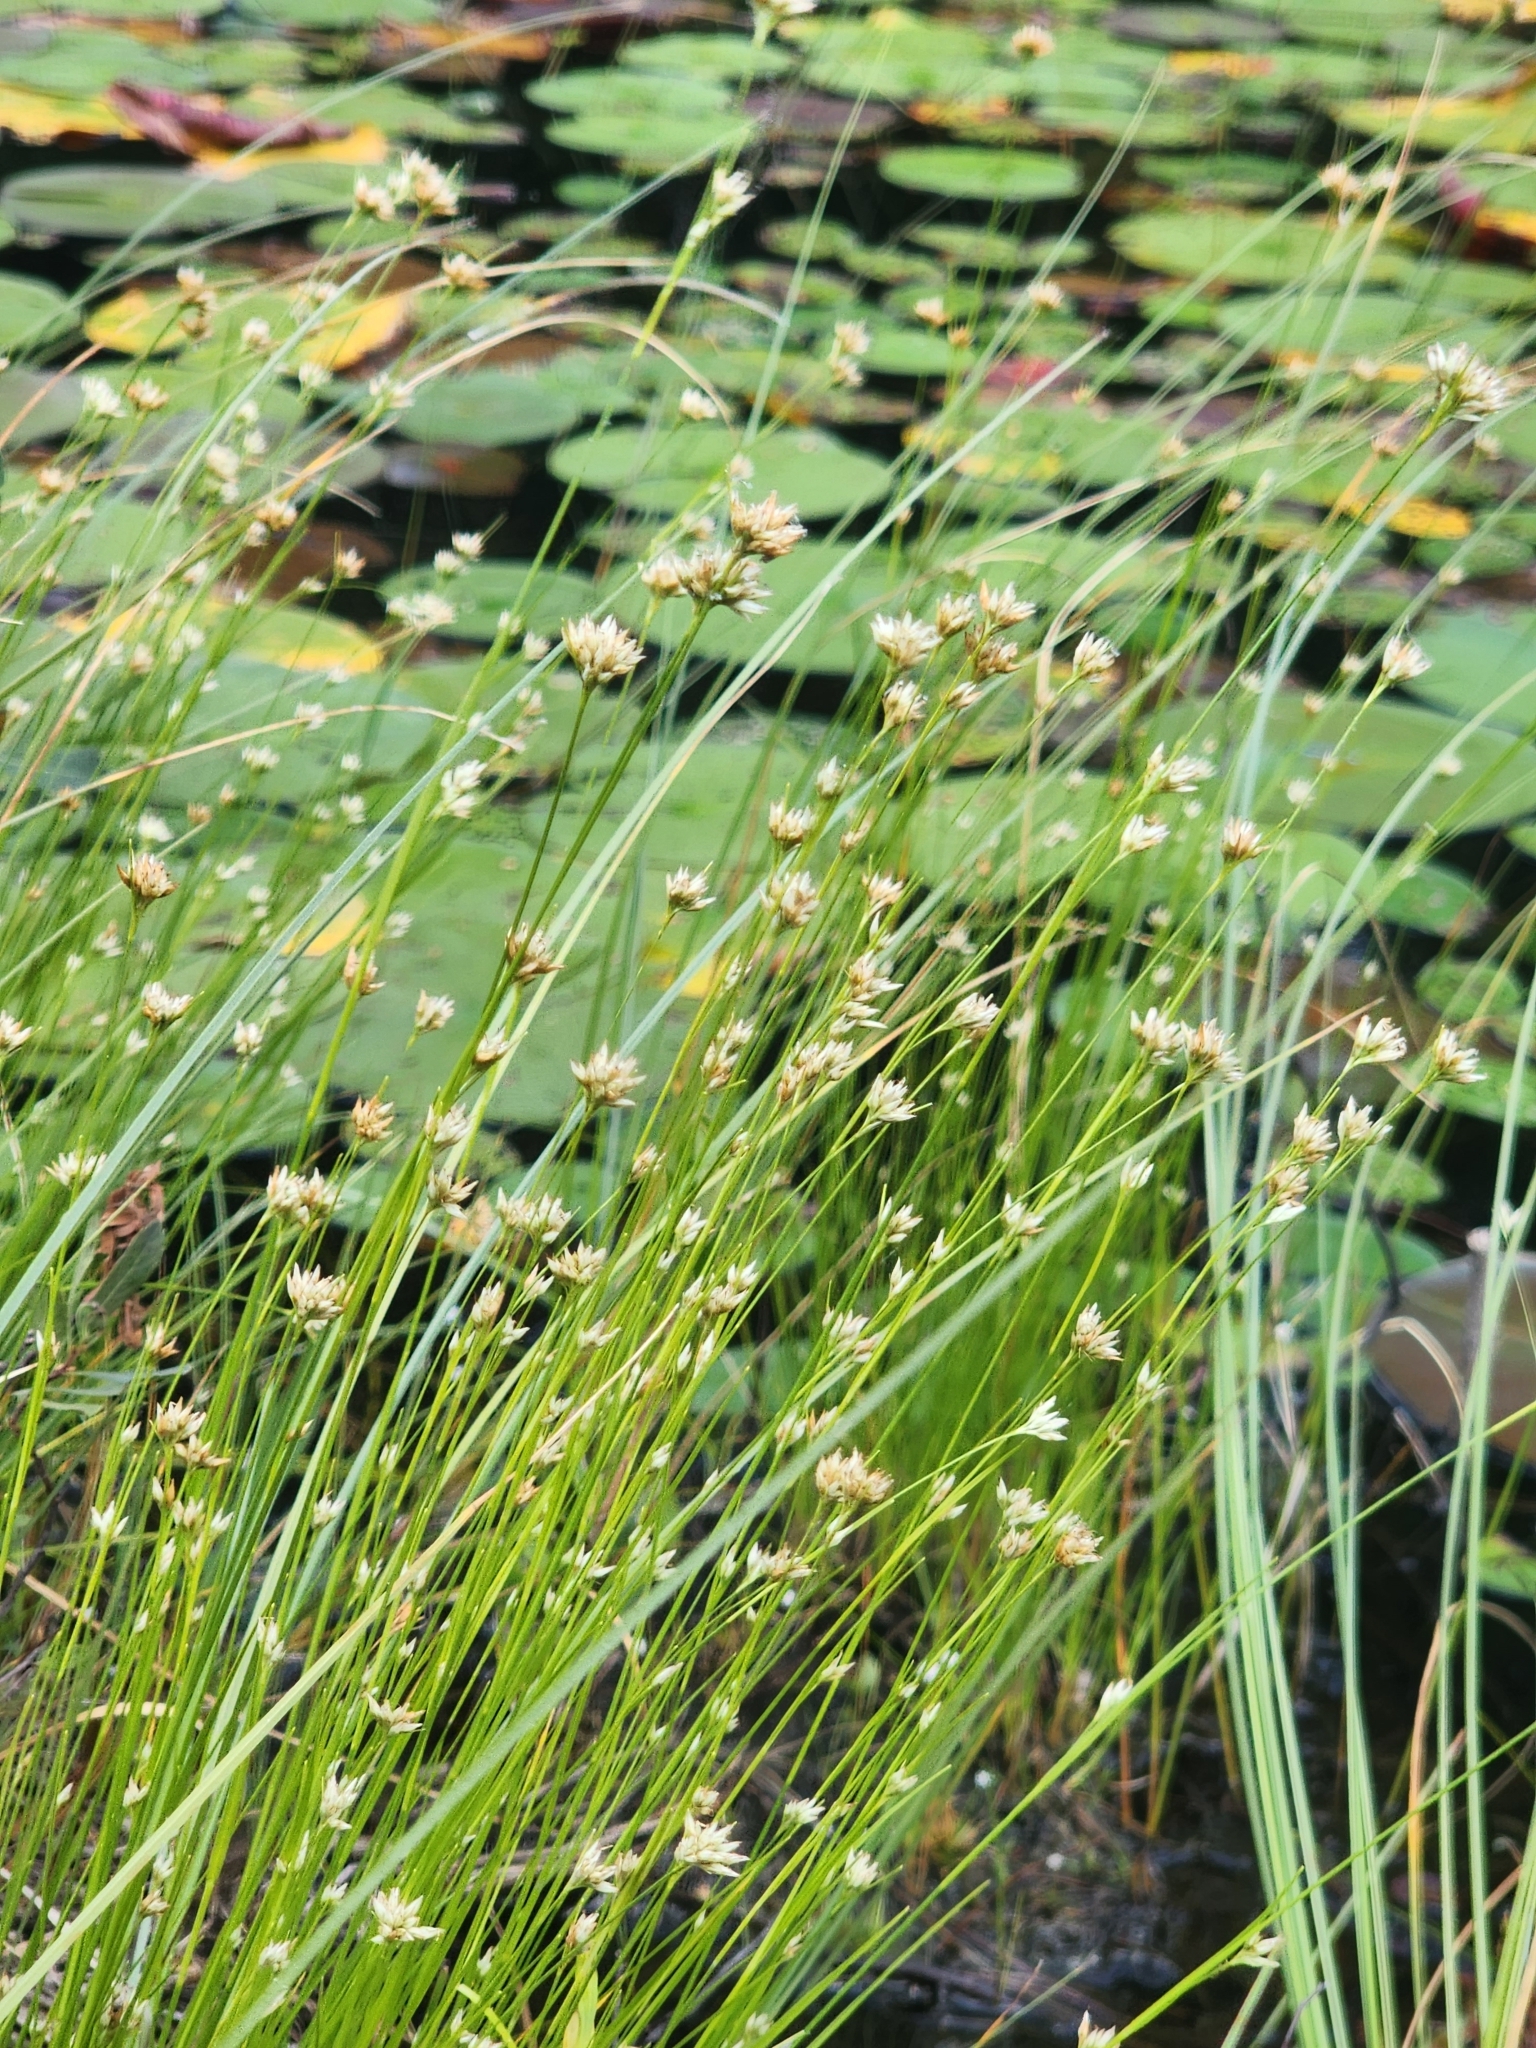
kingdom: Plantae
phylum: Tracheophyta
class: Liliopsida
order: Poales
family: Cyperaceae
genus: Rhynchospora
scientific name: Rhynchospora alba
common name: White beak-sedge
